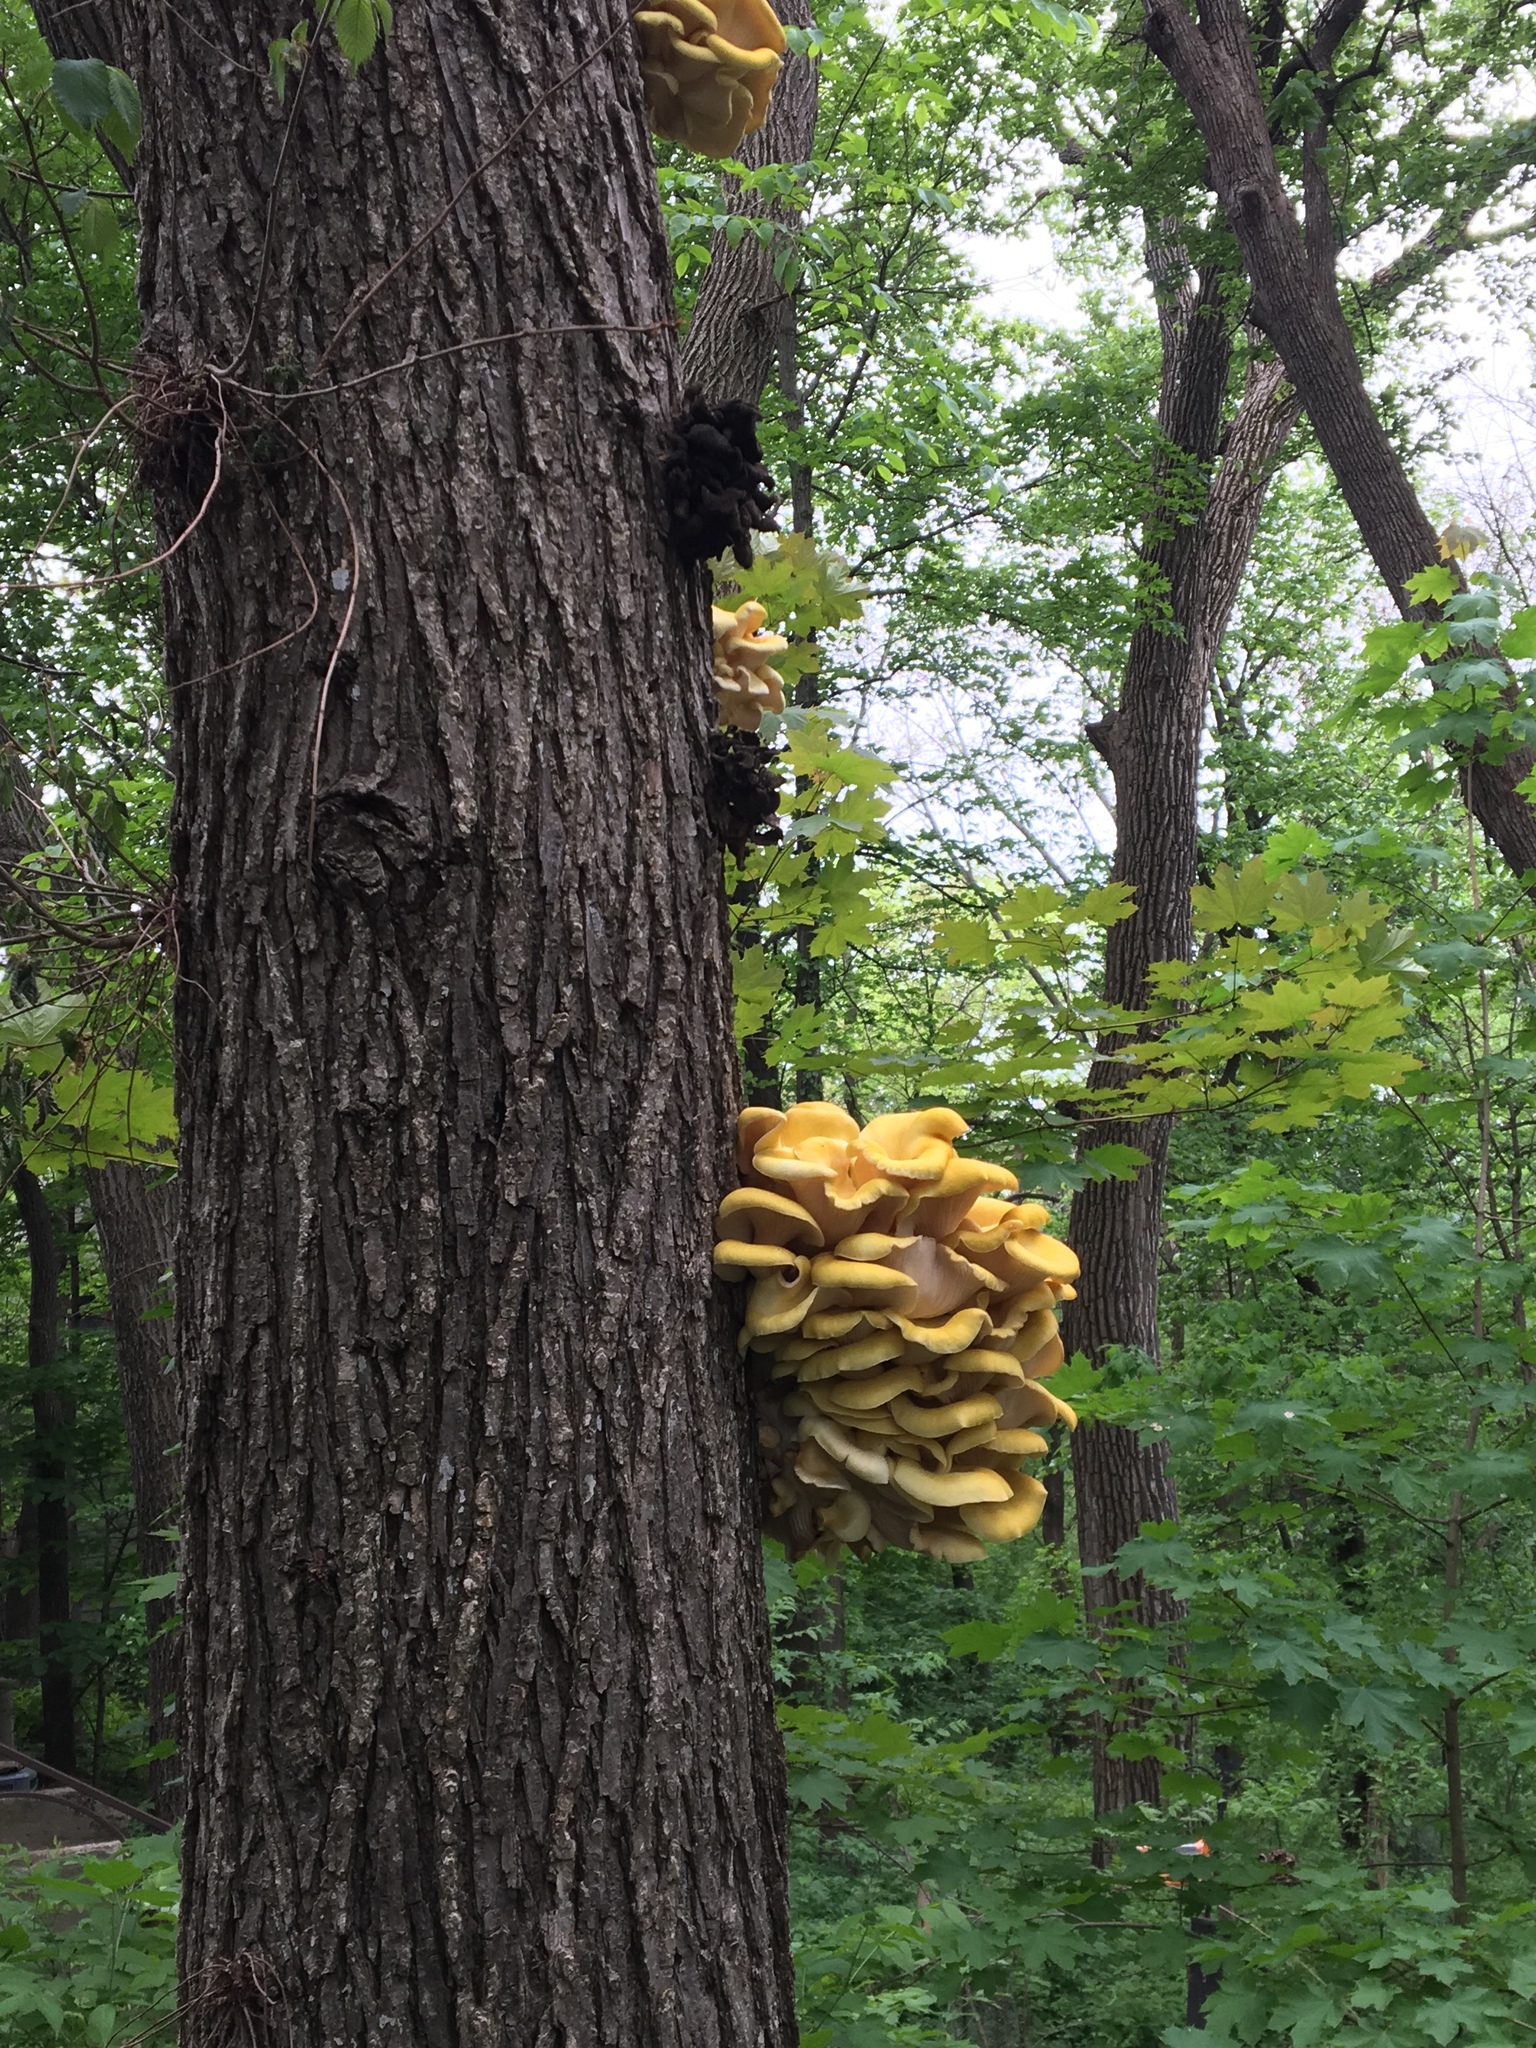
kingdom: Fungi
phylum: Basidiomycota
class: Agaricomycetes
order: Agaricales
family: Pleurotaceae
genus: Pleurotus
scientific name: Pleurotus citrinopileatus
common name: Golden oyster mushroom
